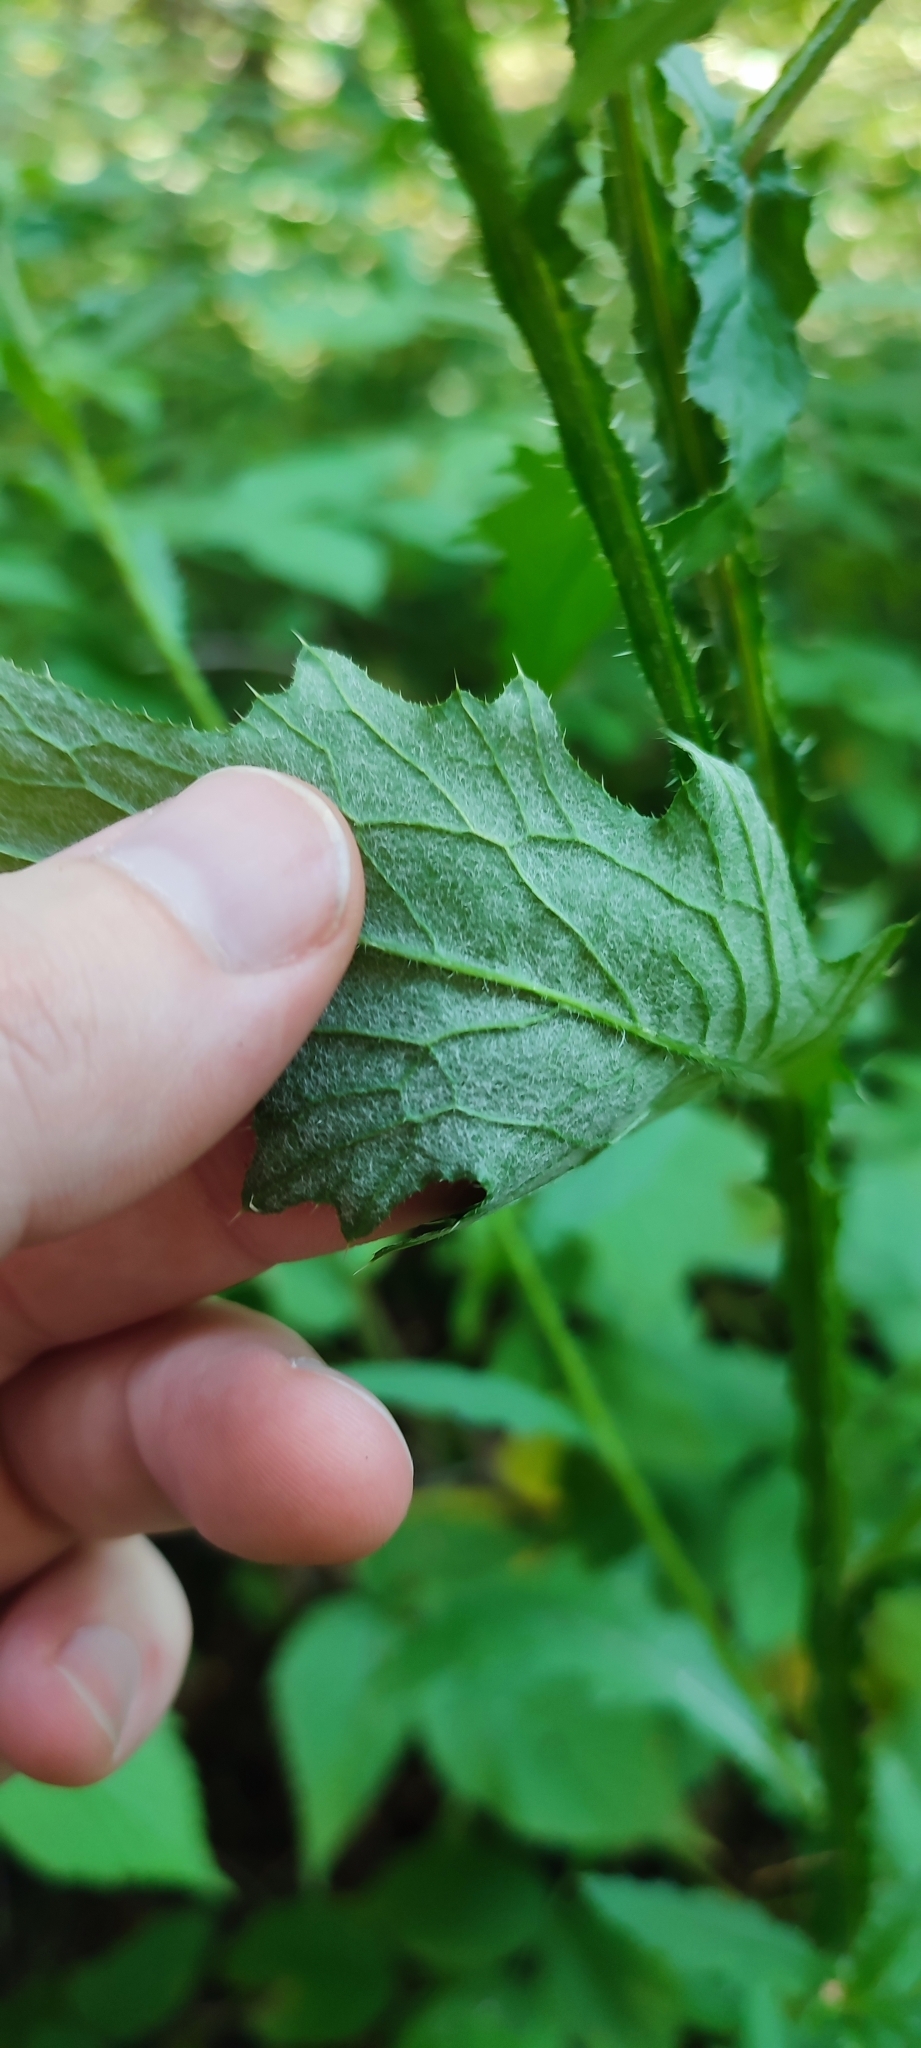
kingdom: Plantae
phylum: Tracheophyta
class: Magnoliopsida
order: Asterales
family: Asteraceae
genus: Carduus
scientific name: Carduus crispus
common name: Welted thistle
